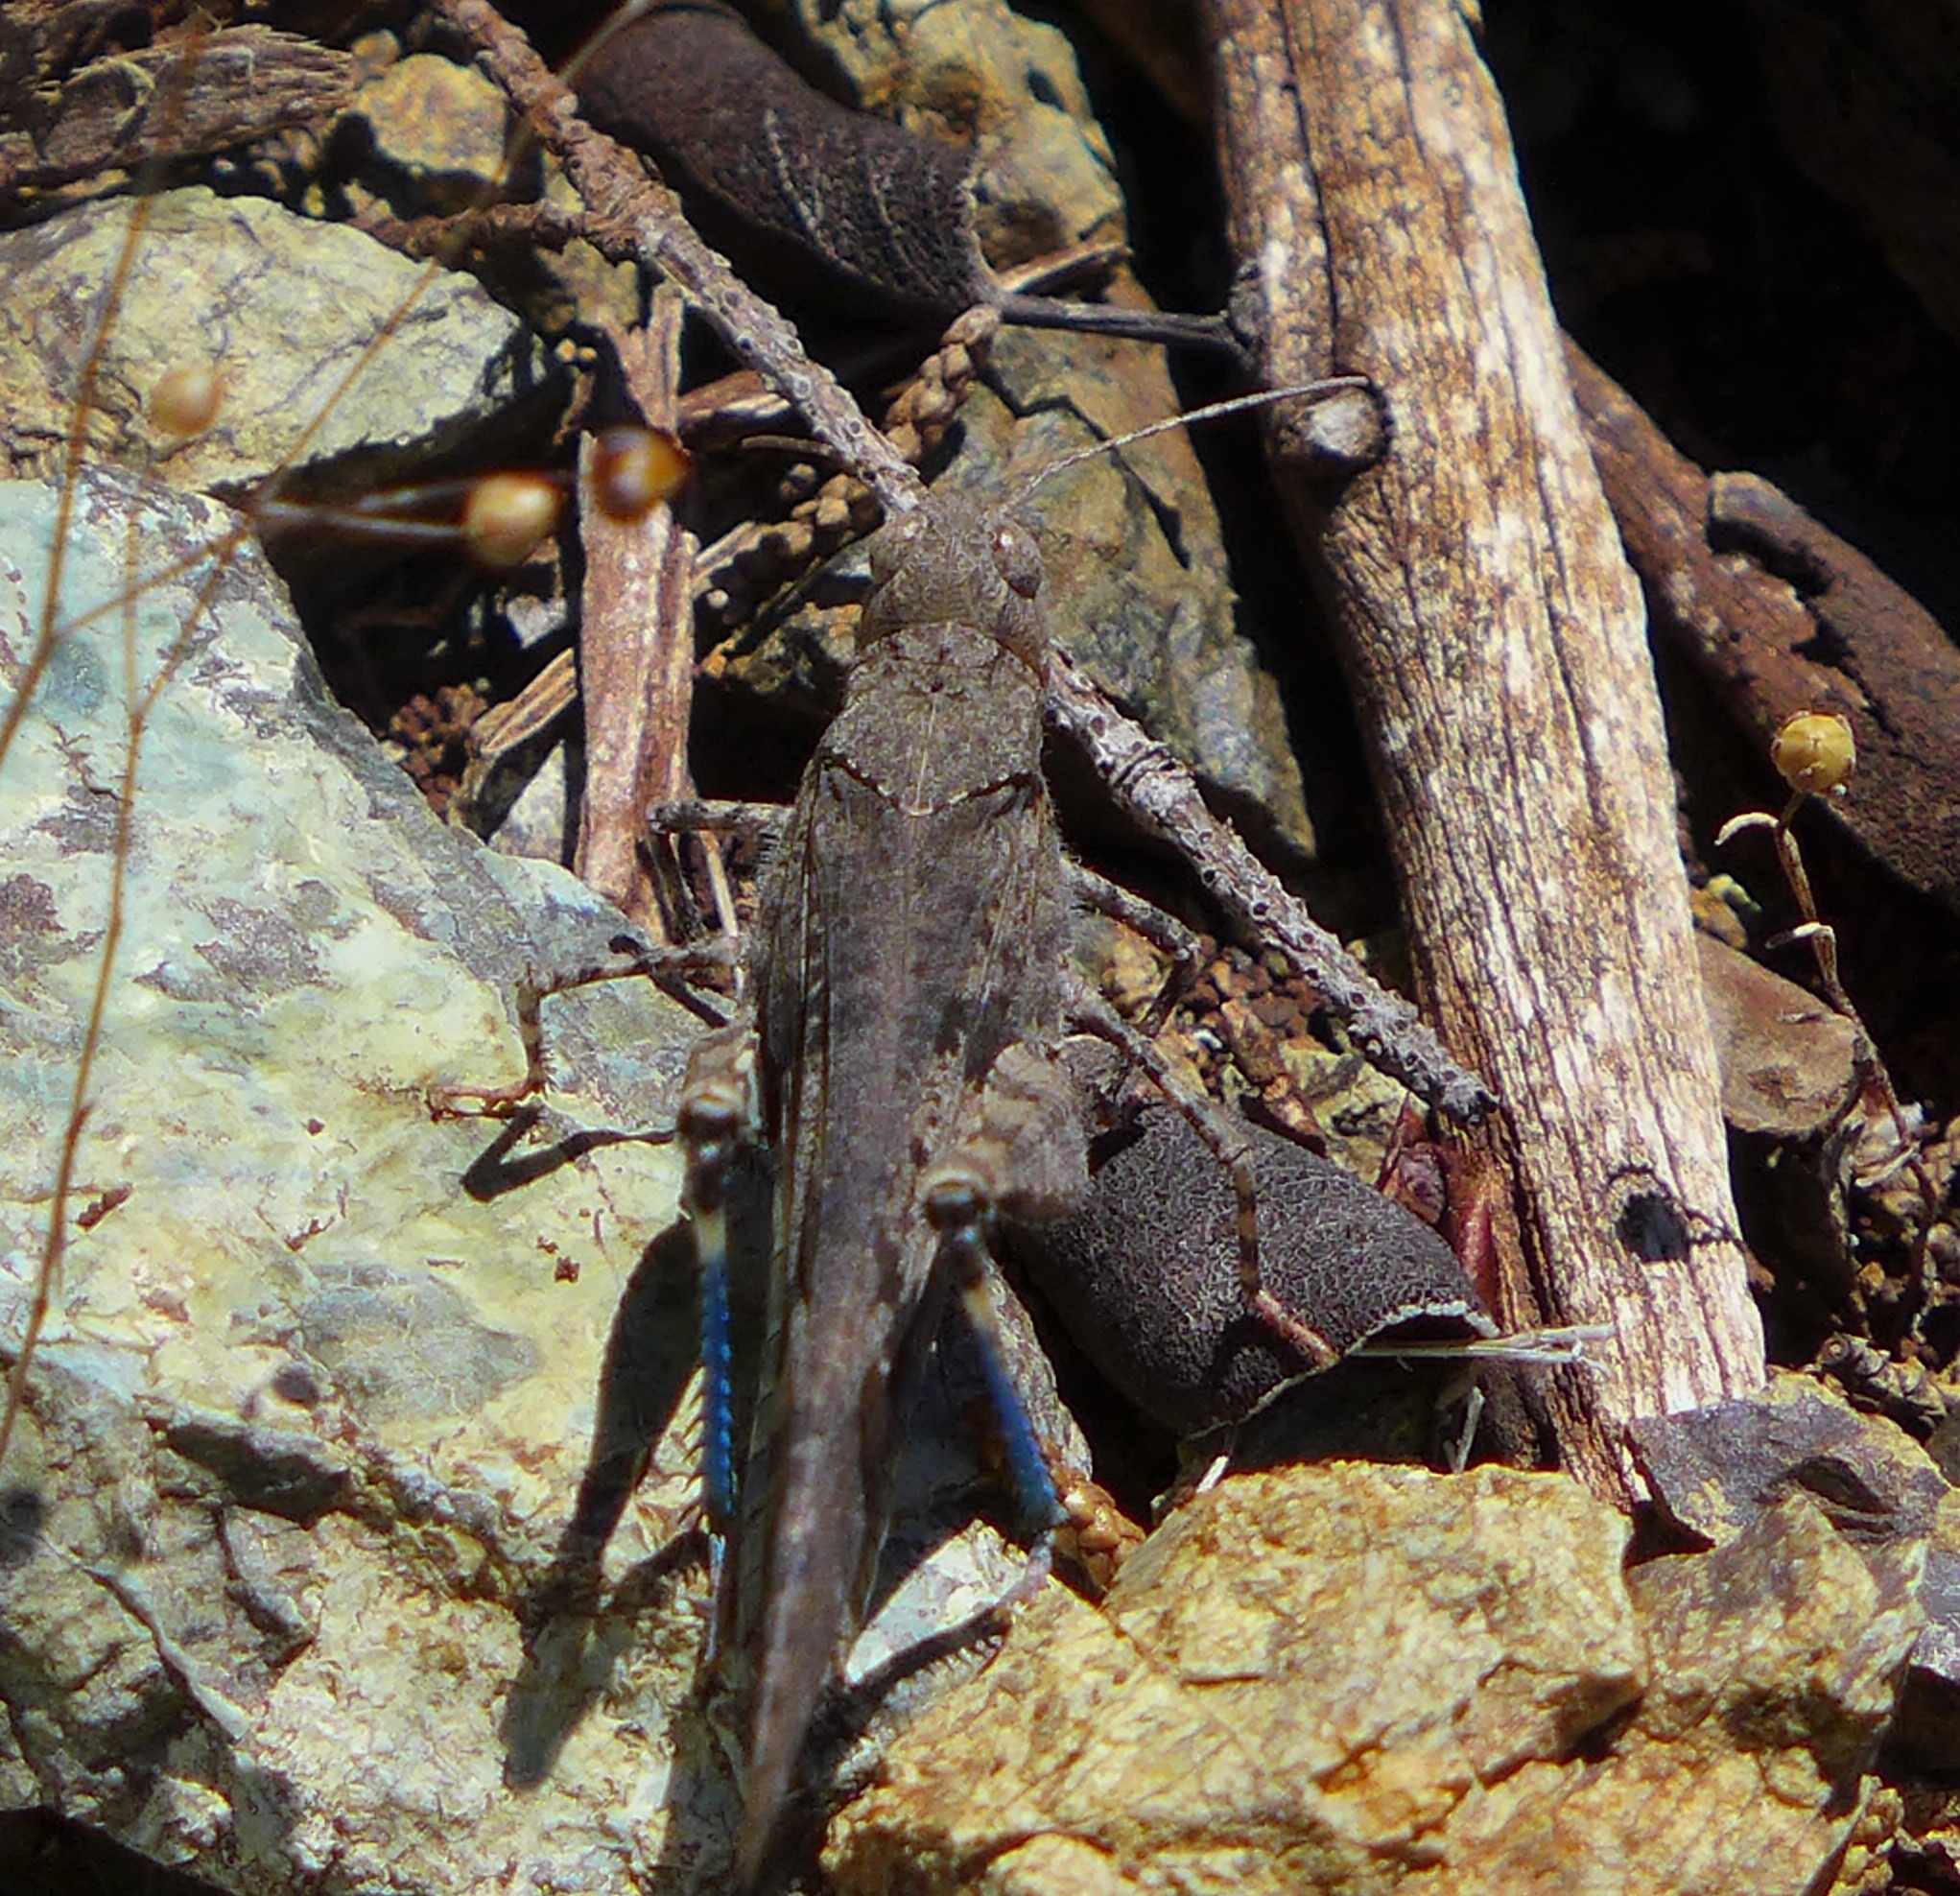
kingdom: Animalia
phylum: Arthropoda
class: Insecta
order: Orthoptera
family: Acrididae
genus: Trimerotropis
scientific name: Trimerotropis fontana
